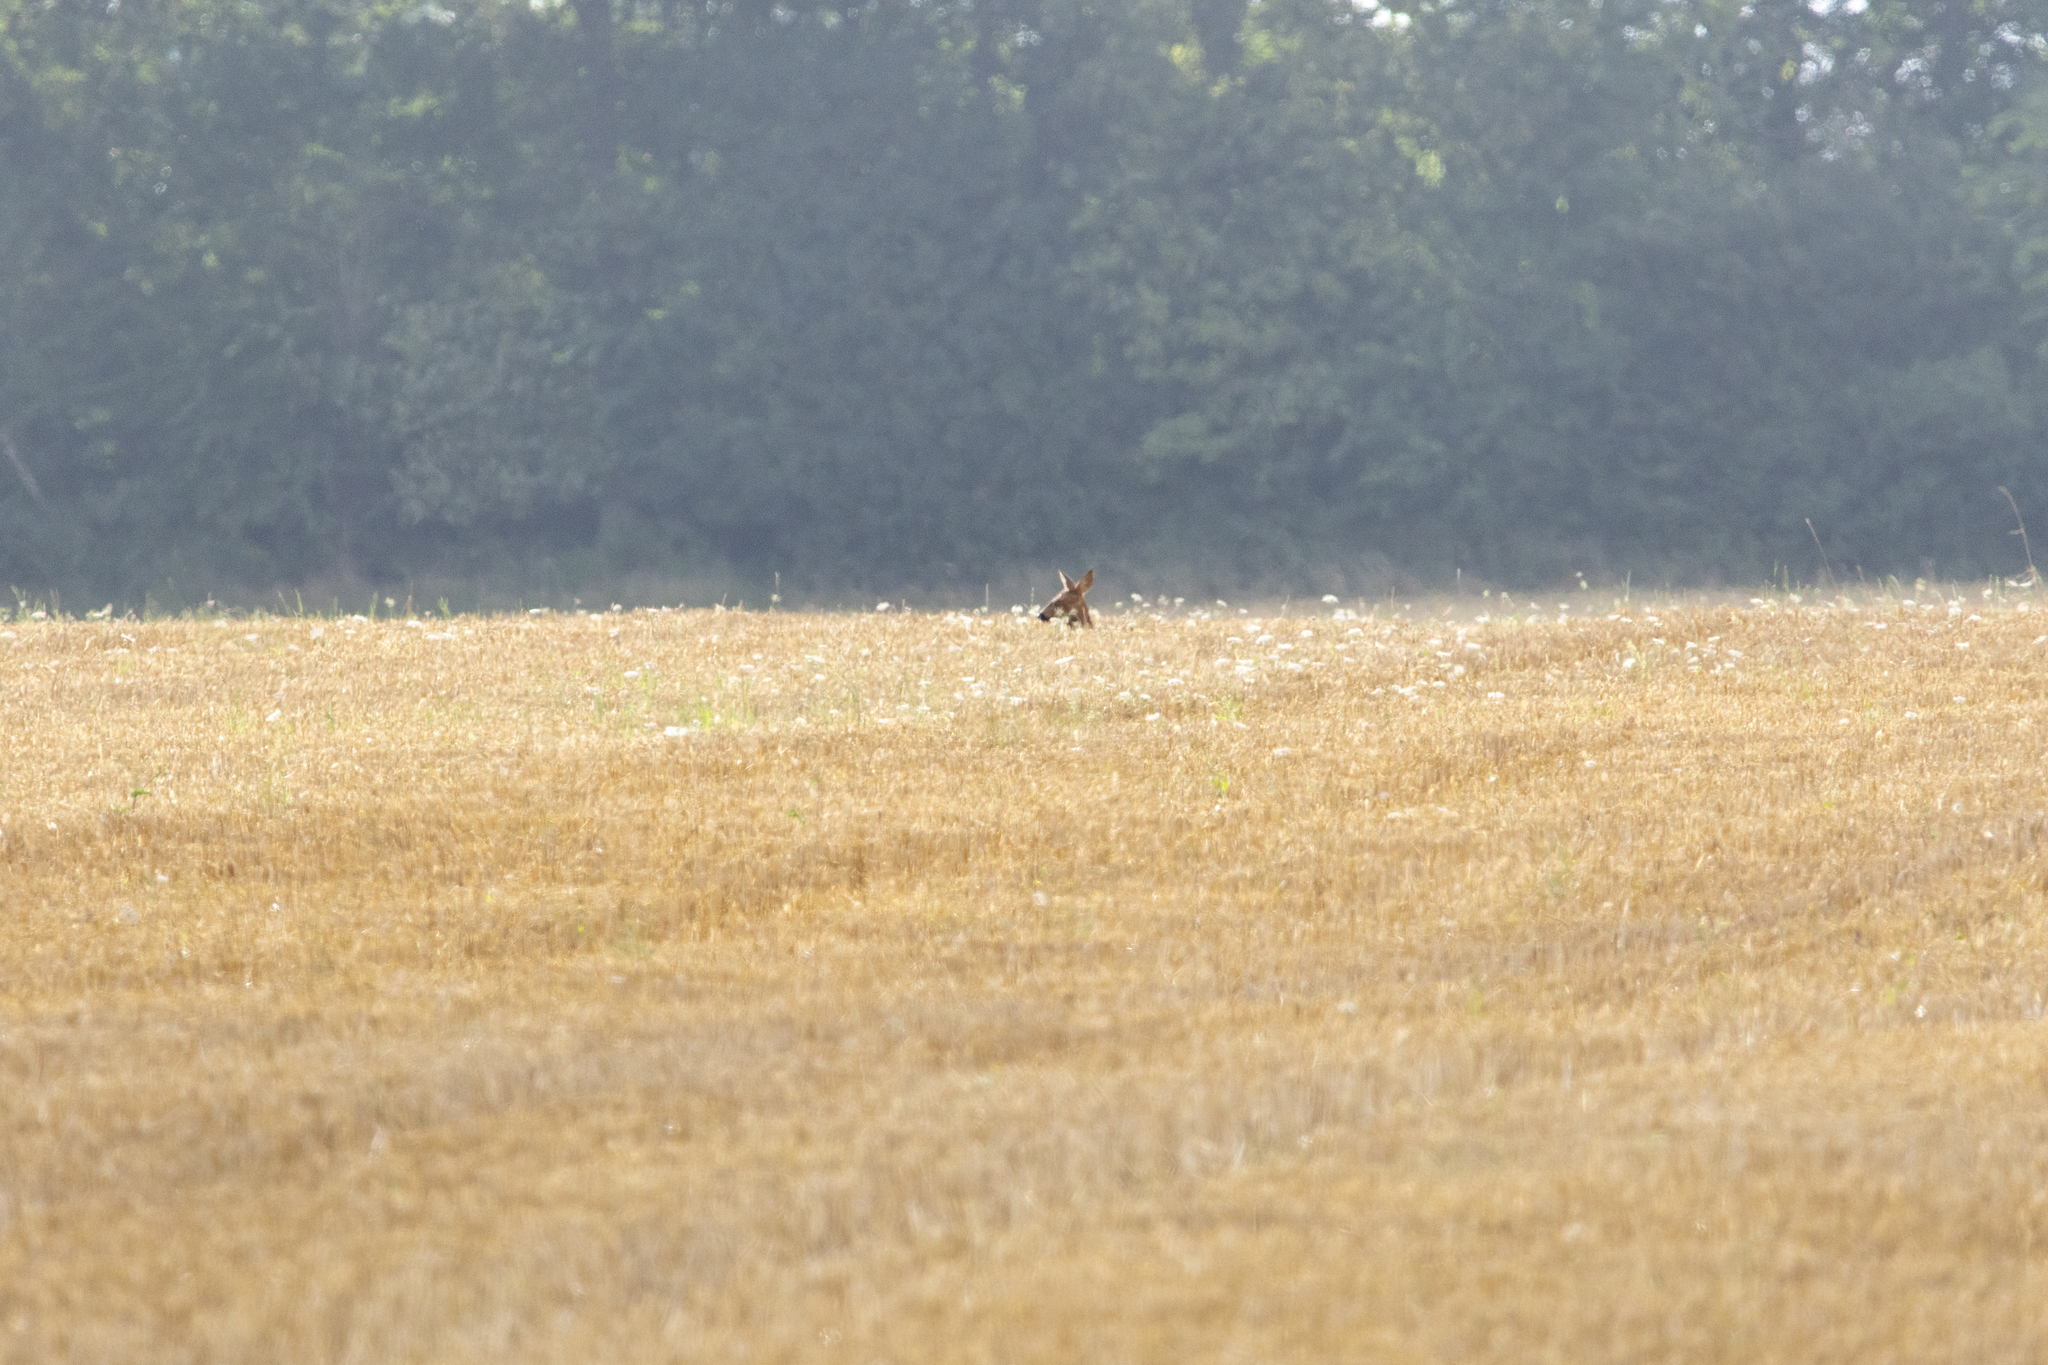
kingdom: Animalia
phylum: Chordata
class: Mammalia
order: Artiodactyla
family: Cervidae
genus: Capreolus
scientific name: Capreolus capreolus
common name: Western roe deer
